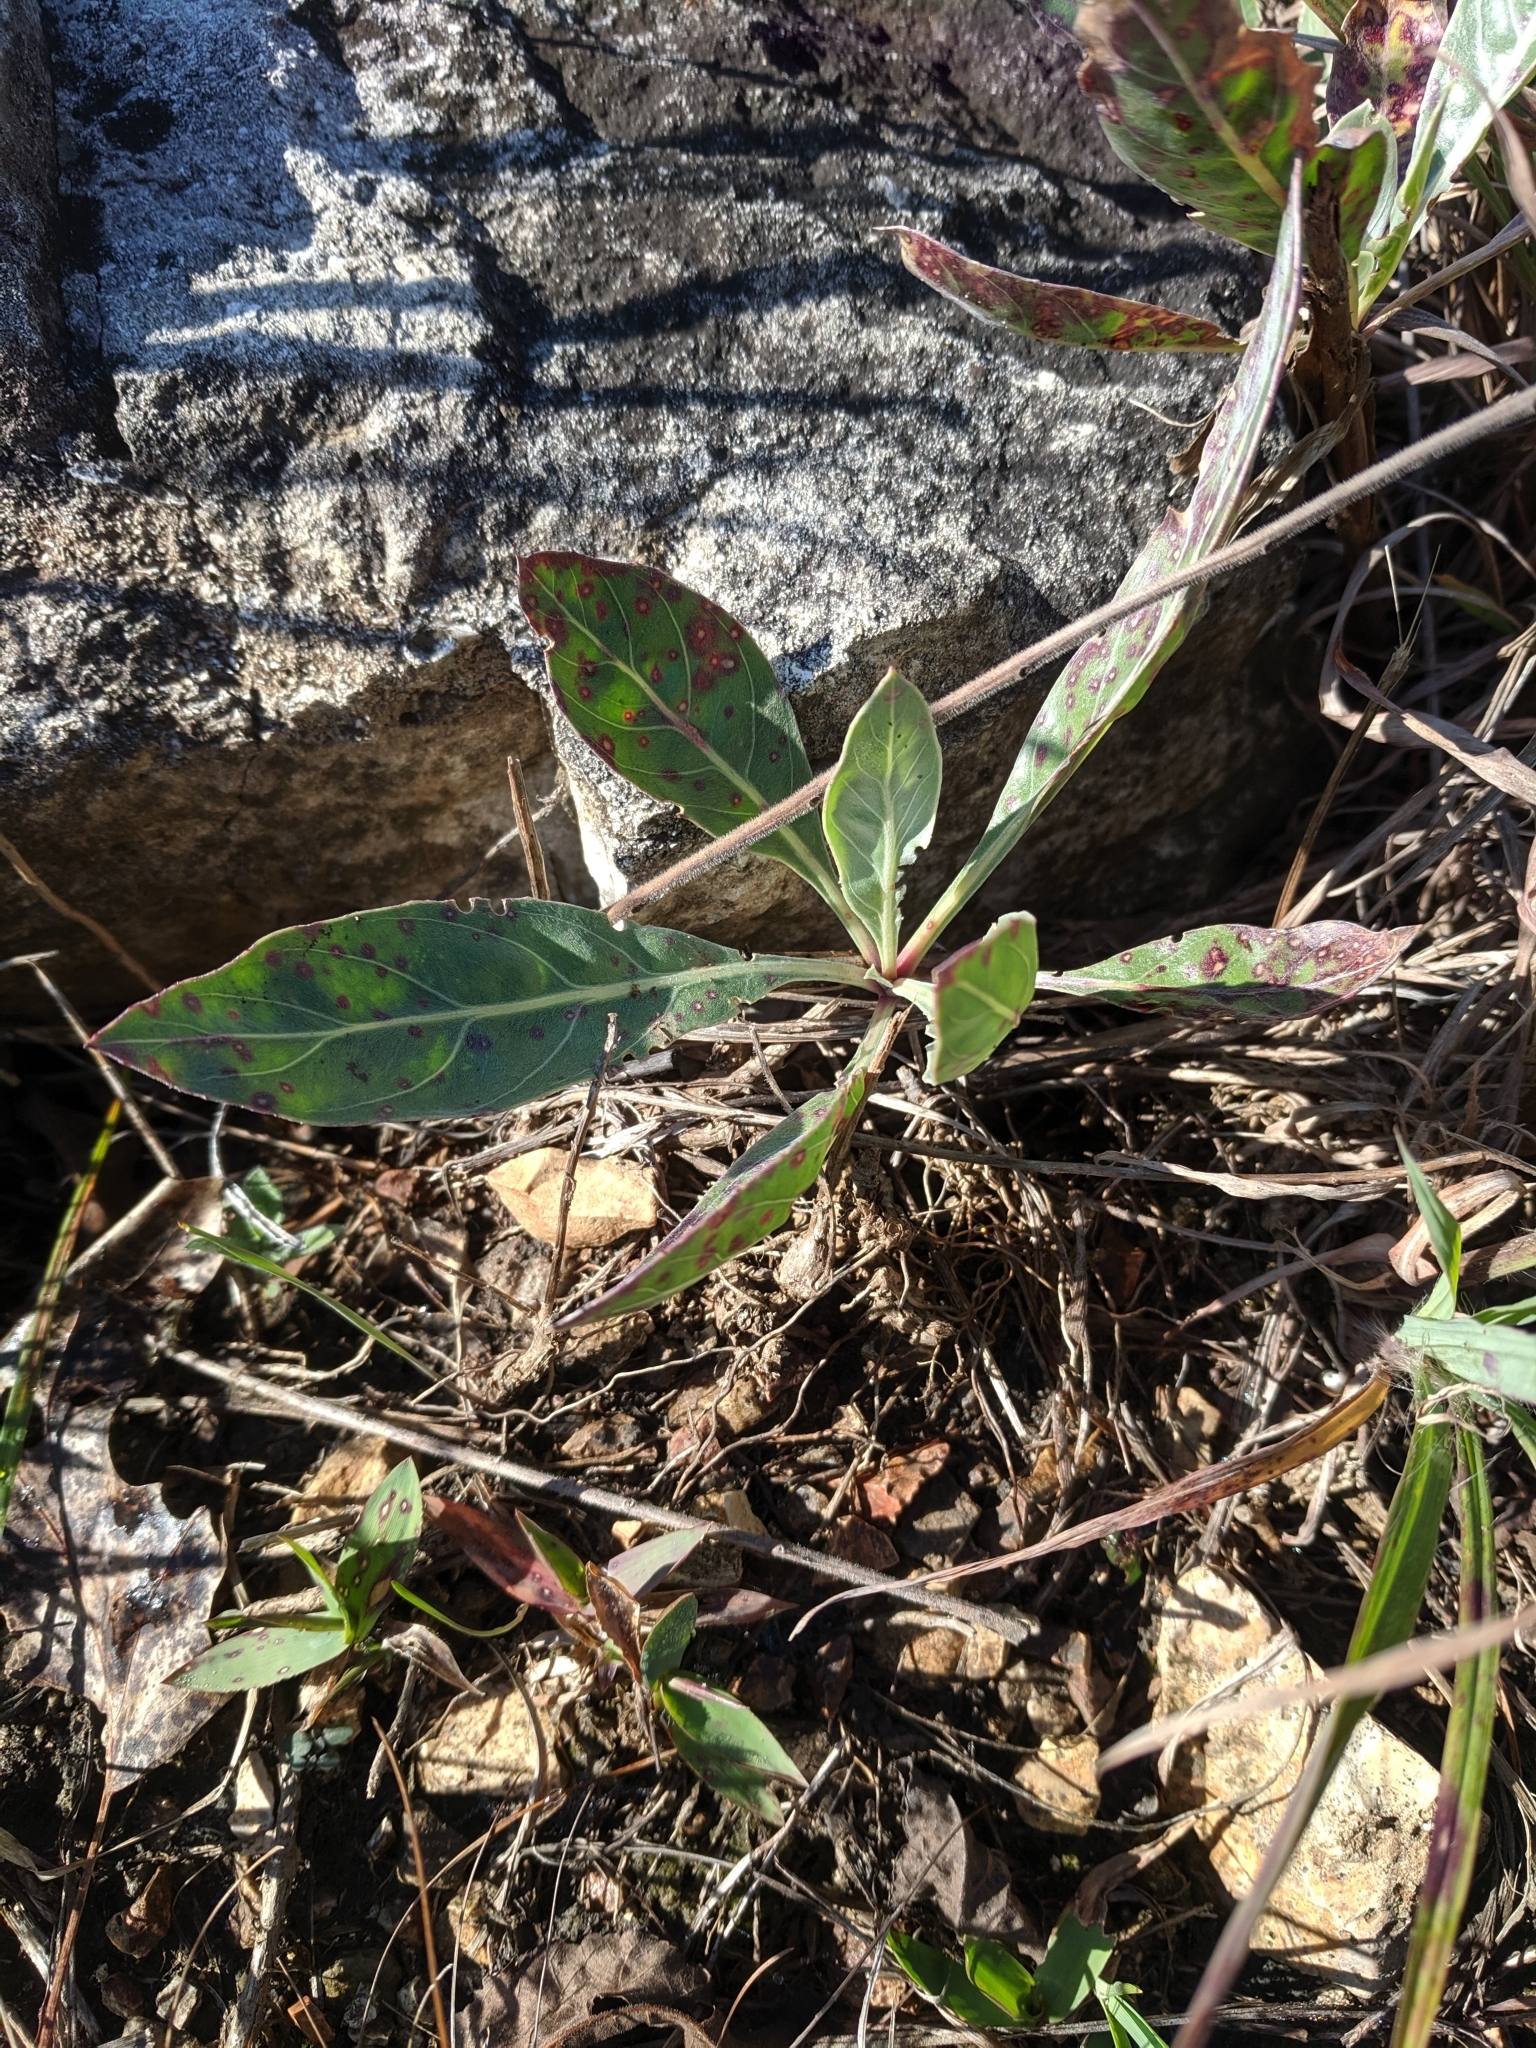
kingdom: Plantae
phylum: Tracheophyta
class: Magnoliopsida
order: Myrtales
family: Onagraceae
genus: Oenothera
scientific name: Oenothera macrocarpa
